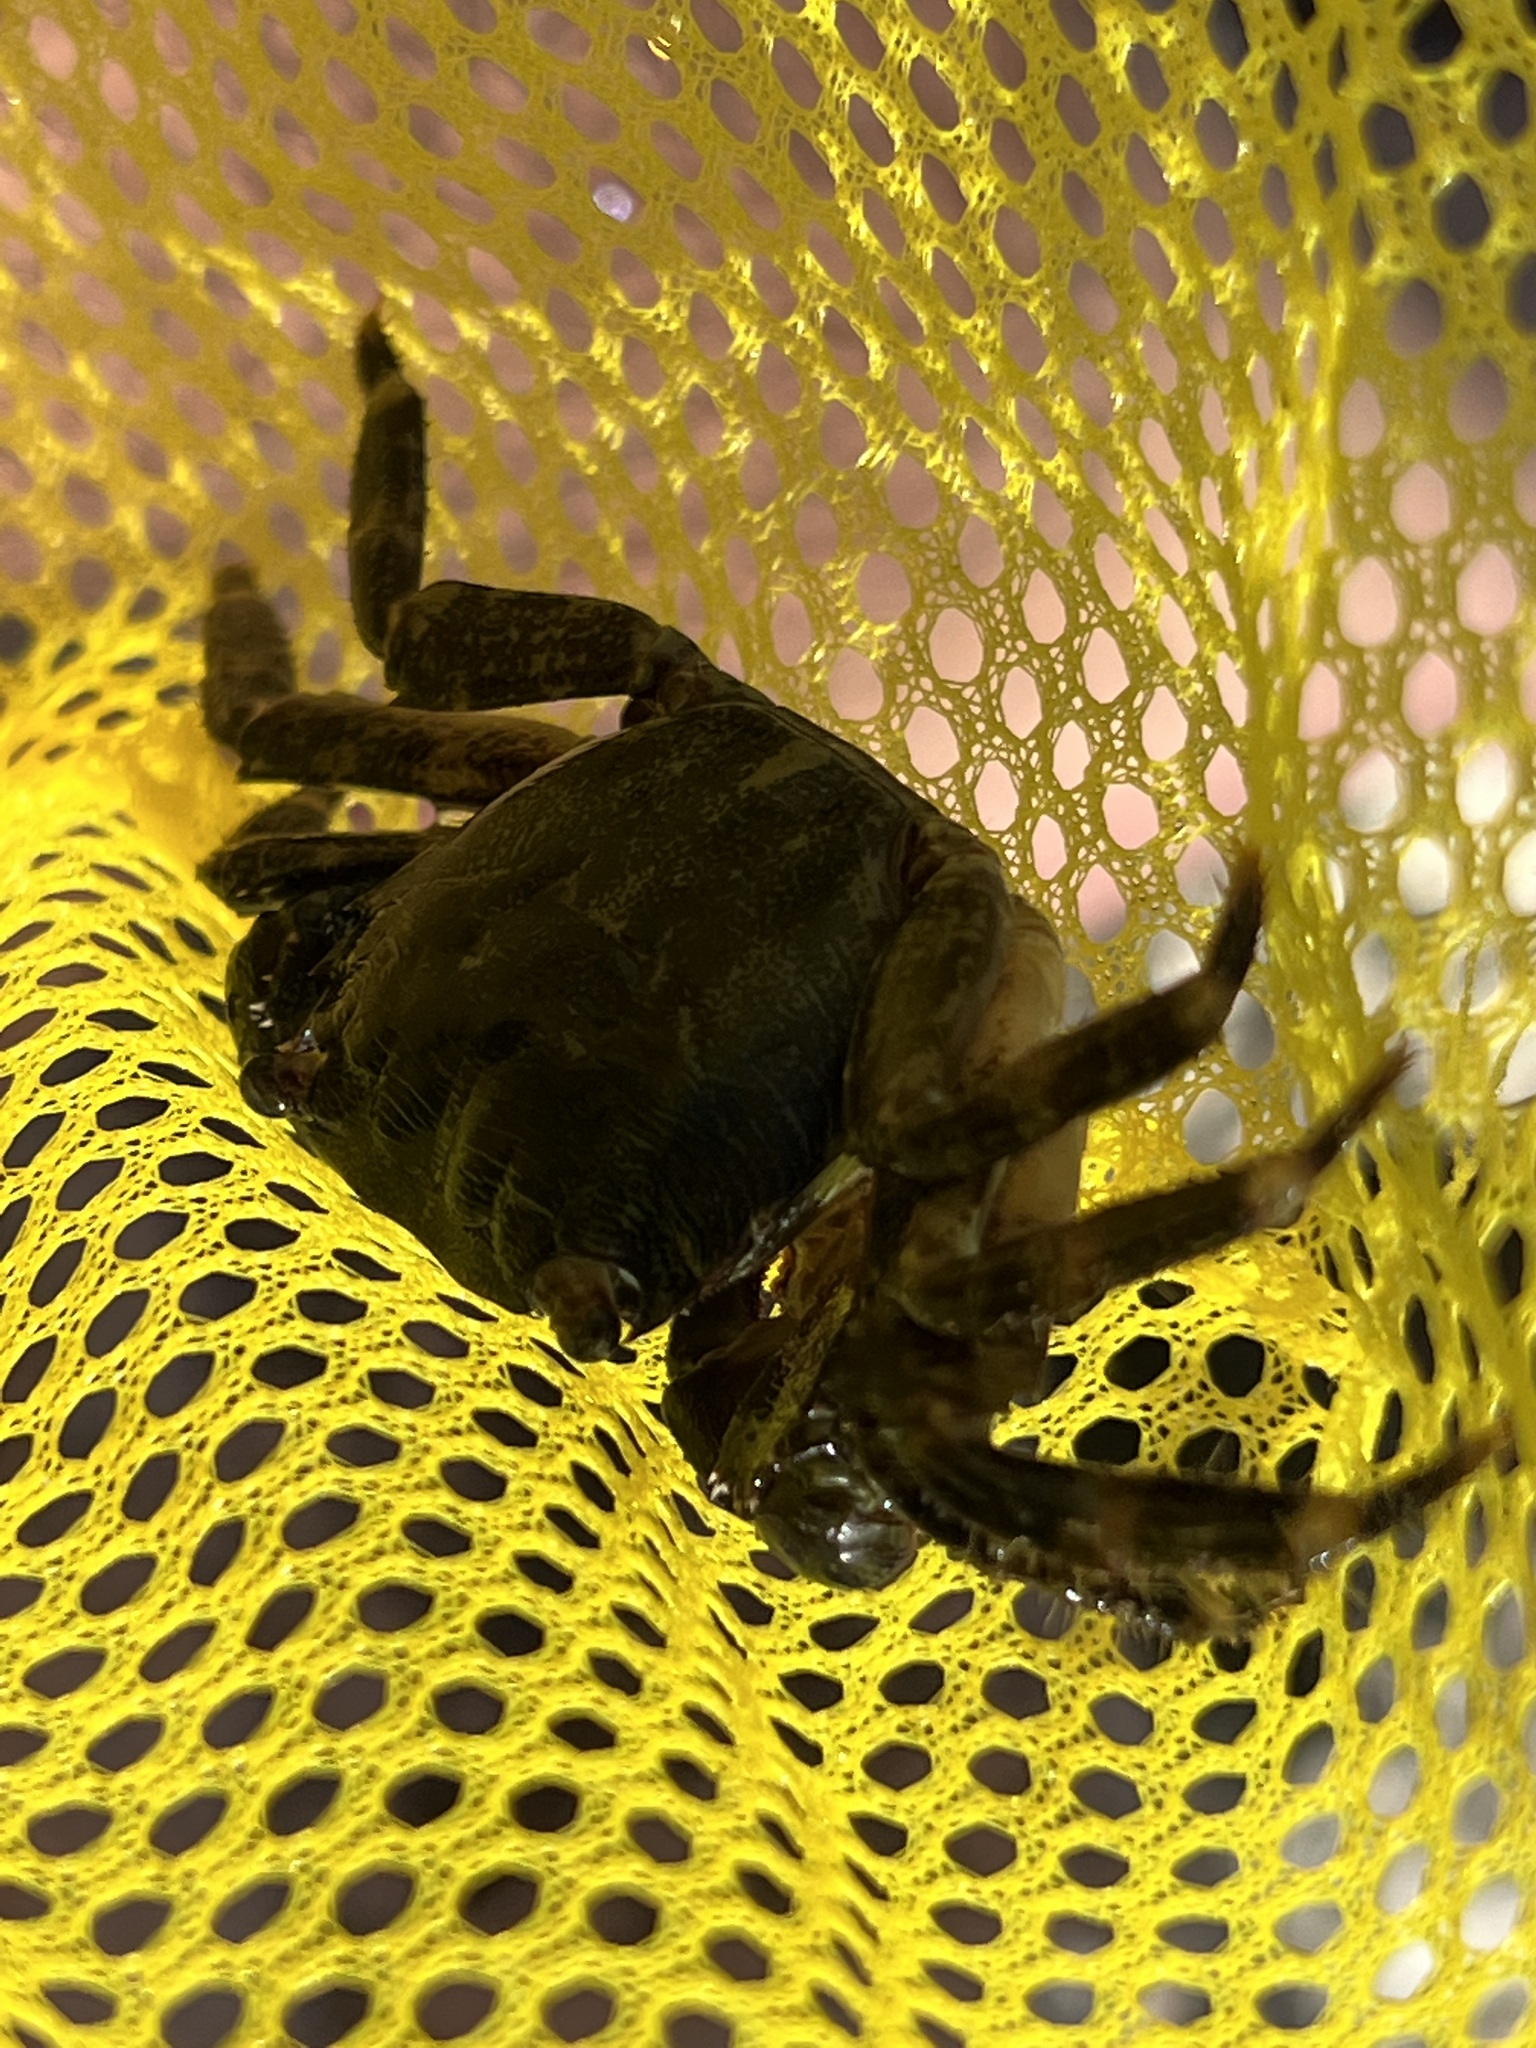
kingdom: Animalia
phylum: Arthropoda
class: Malacostraca
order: Decapoda
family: Grapsidae
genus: Pachygrapsus
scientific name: Pachygrapsus marmoratus
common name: Marbled rock crab
